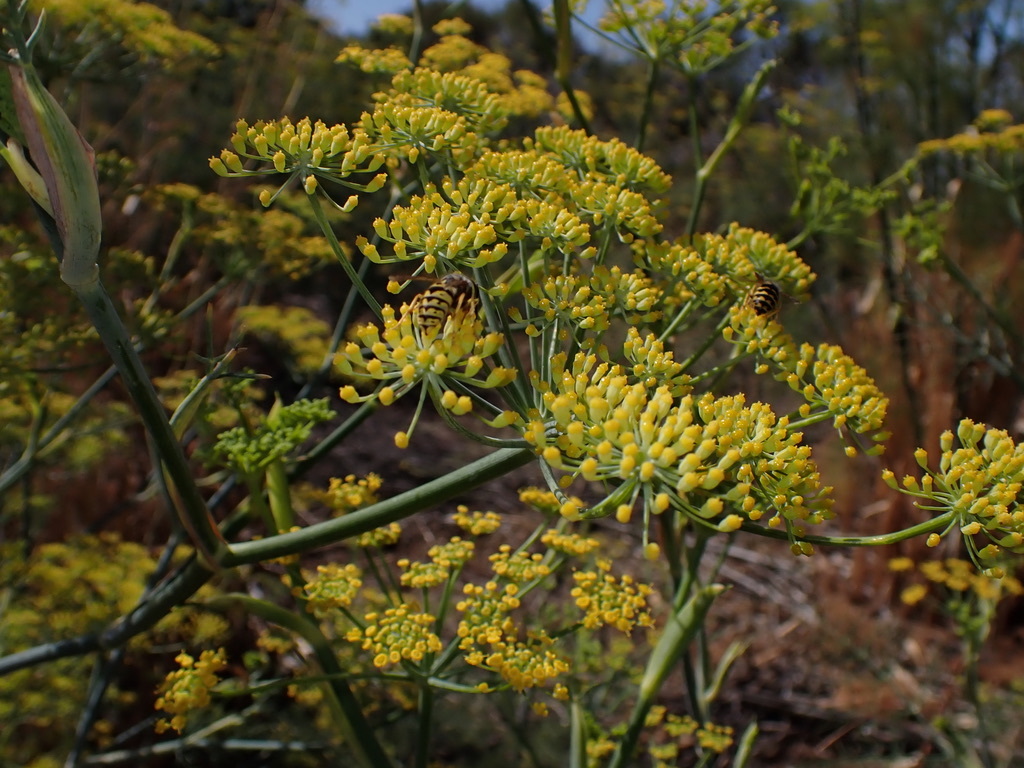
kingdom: Plantae
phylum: Tracheophyta
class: Magnoliopsida
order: Apiales
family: Apiaceae
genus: Foeniculum
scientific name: Foeniculum vulgare
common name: Fennel
